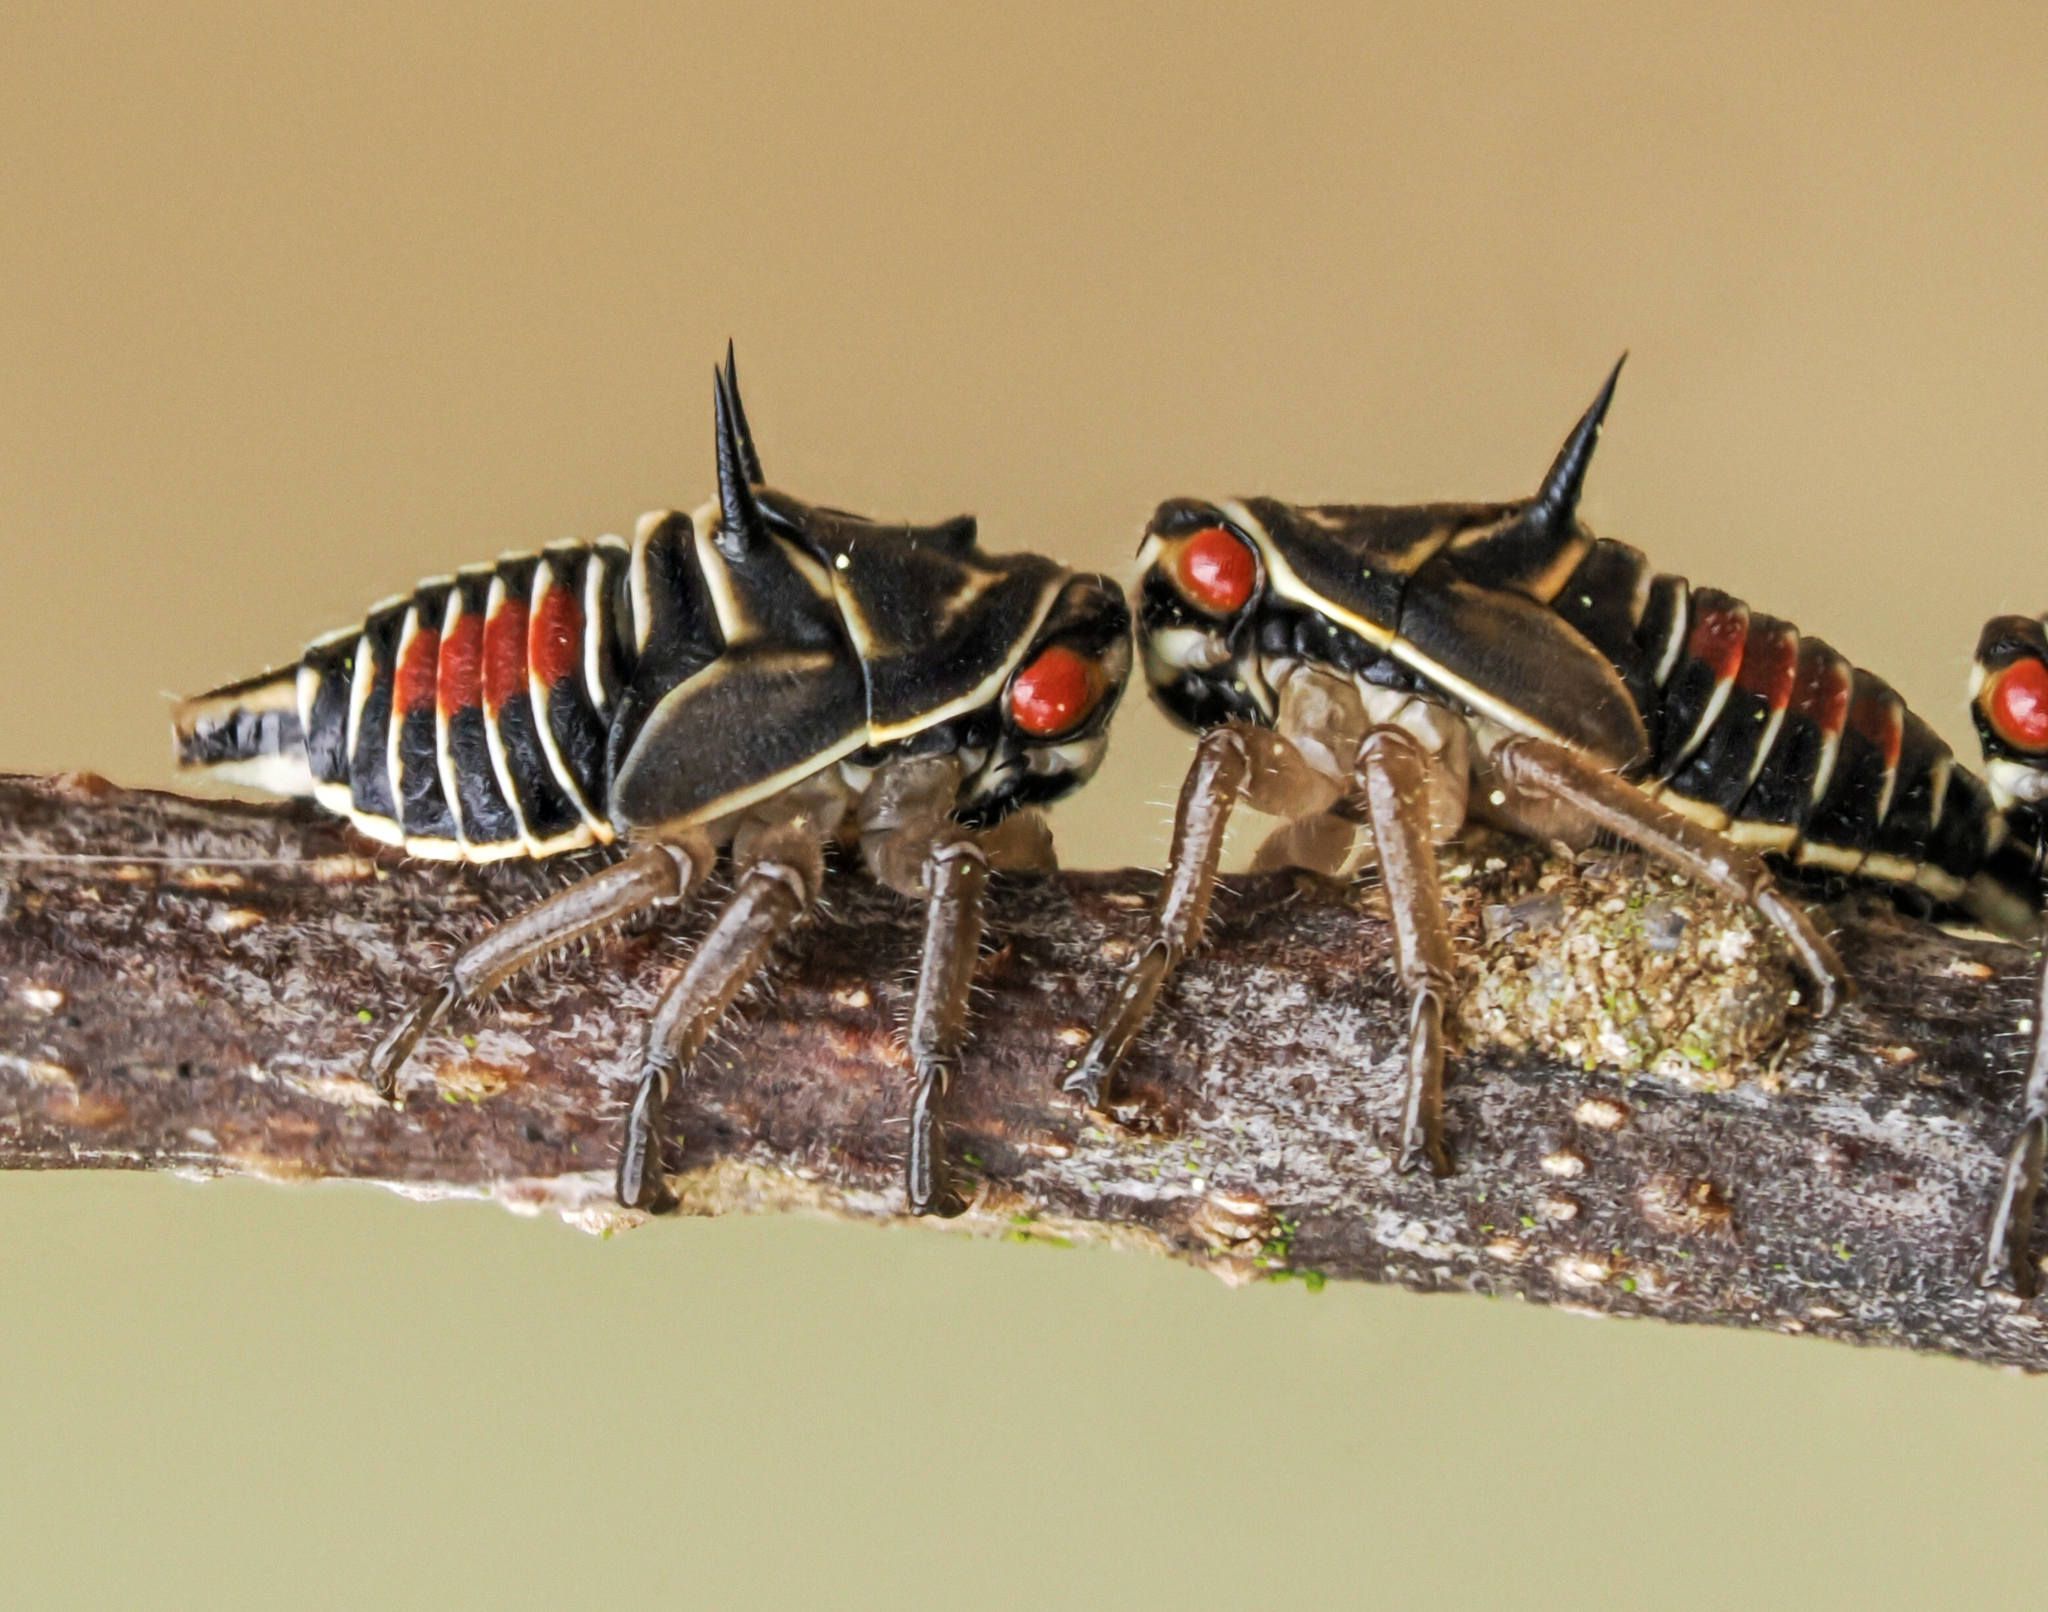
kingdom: Animalia
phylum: Arthropoda
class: Insecta
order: Hemiptera
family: Membracidae
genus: Platycotis
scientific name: Platycotis vittatus
